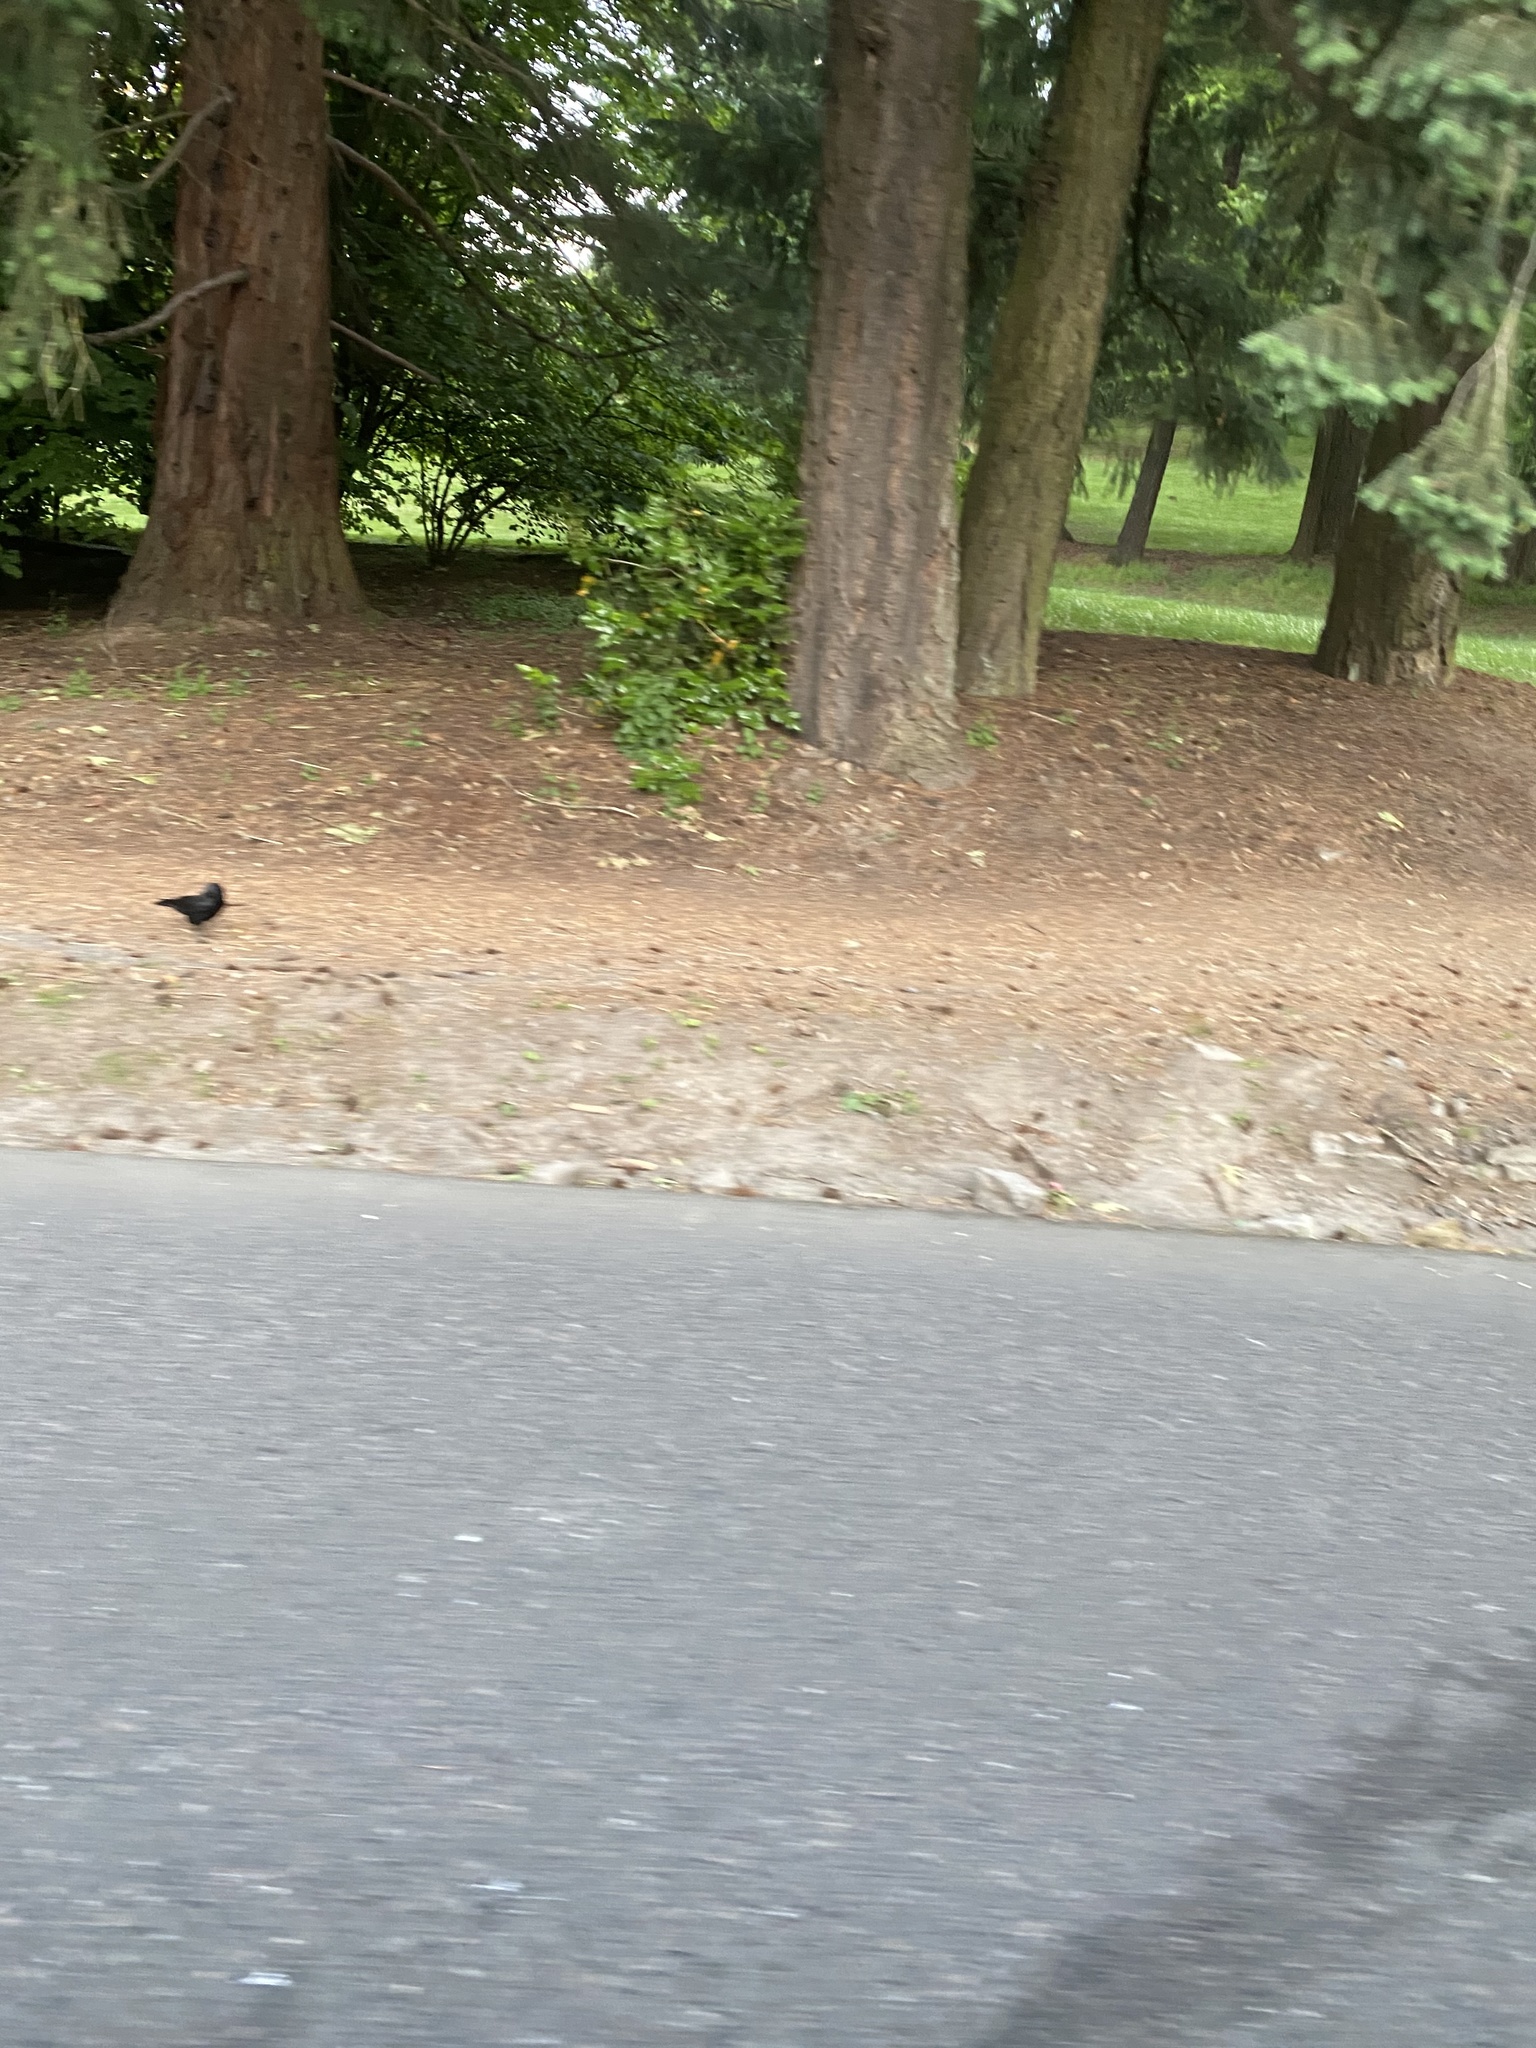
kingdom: Animalia
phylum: Chordata
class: Aves
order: Passeriformes
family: Corvidae
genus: Corvus
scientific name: Corvus brachyrhynchos
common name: American crow
